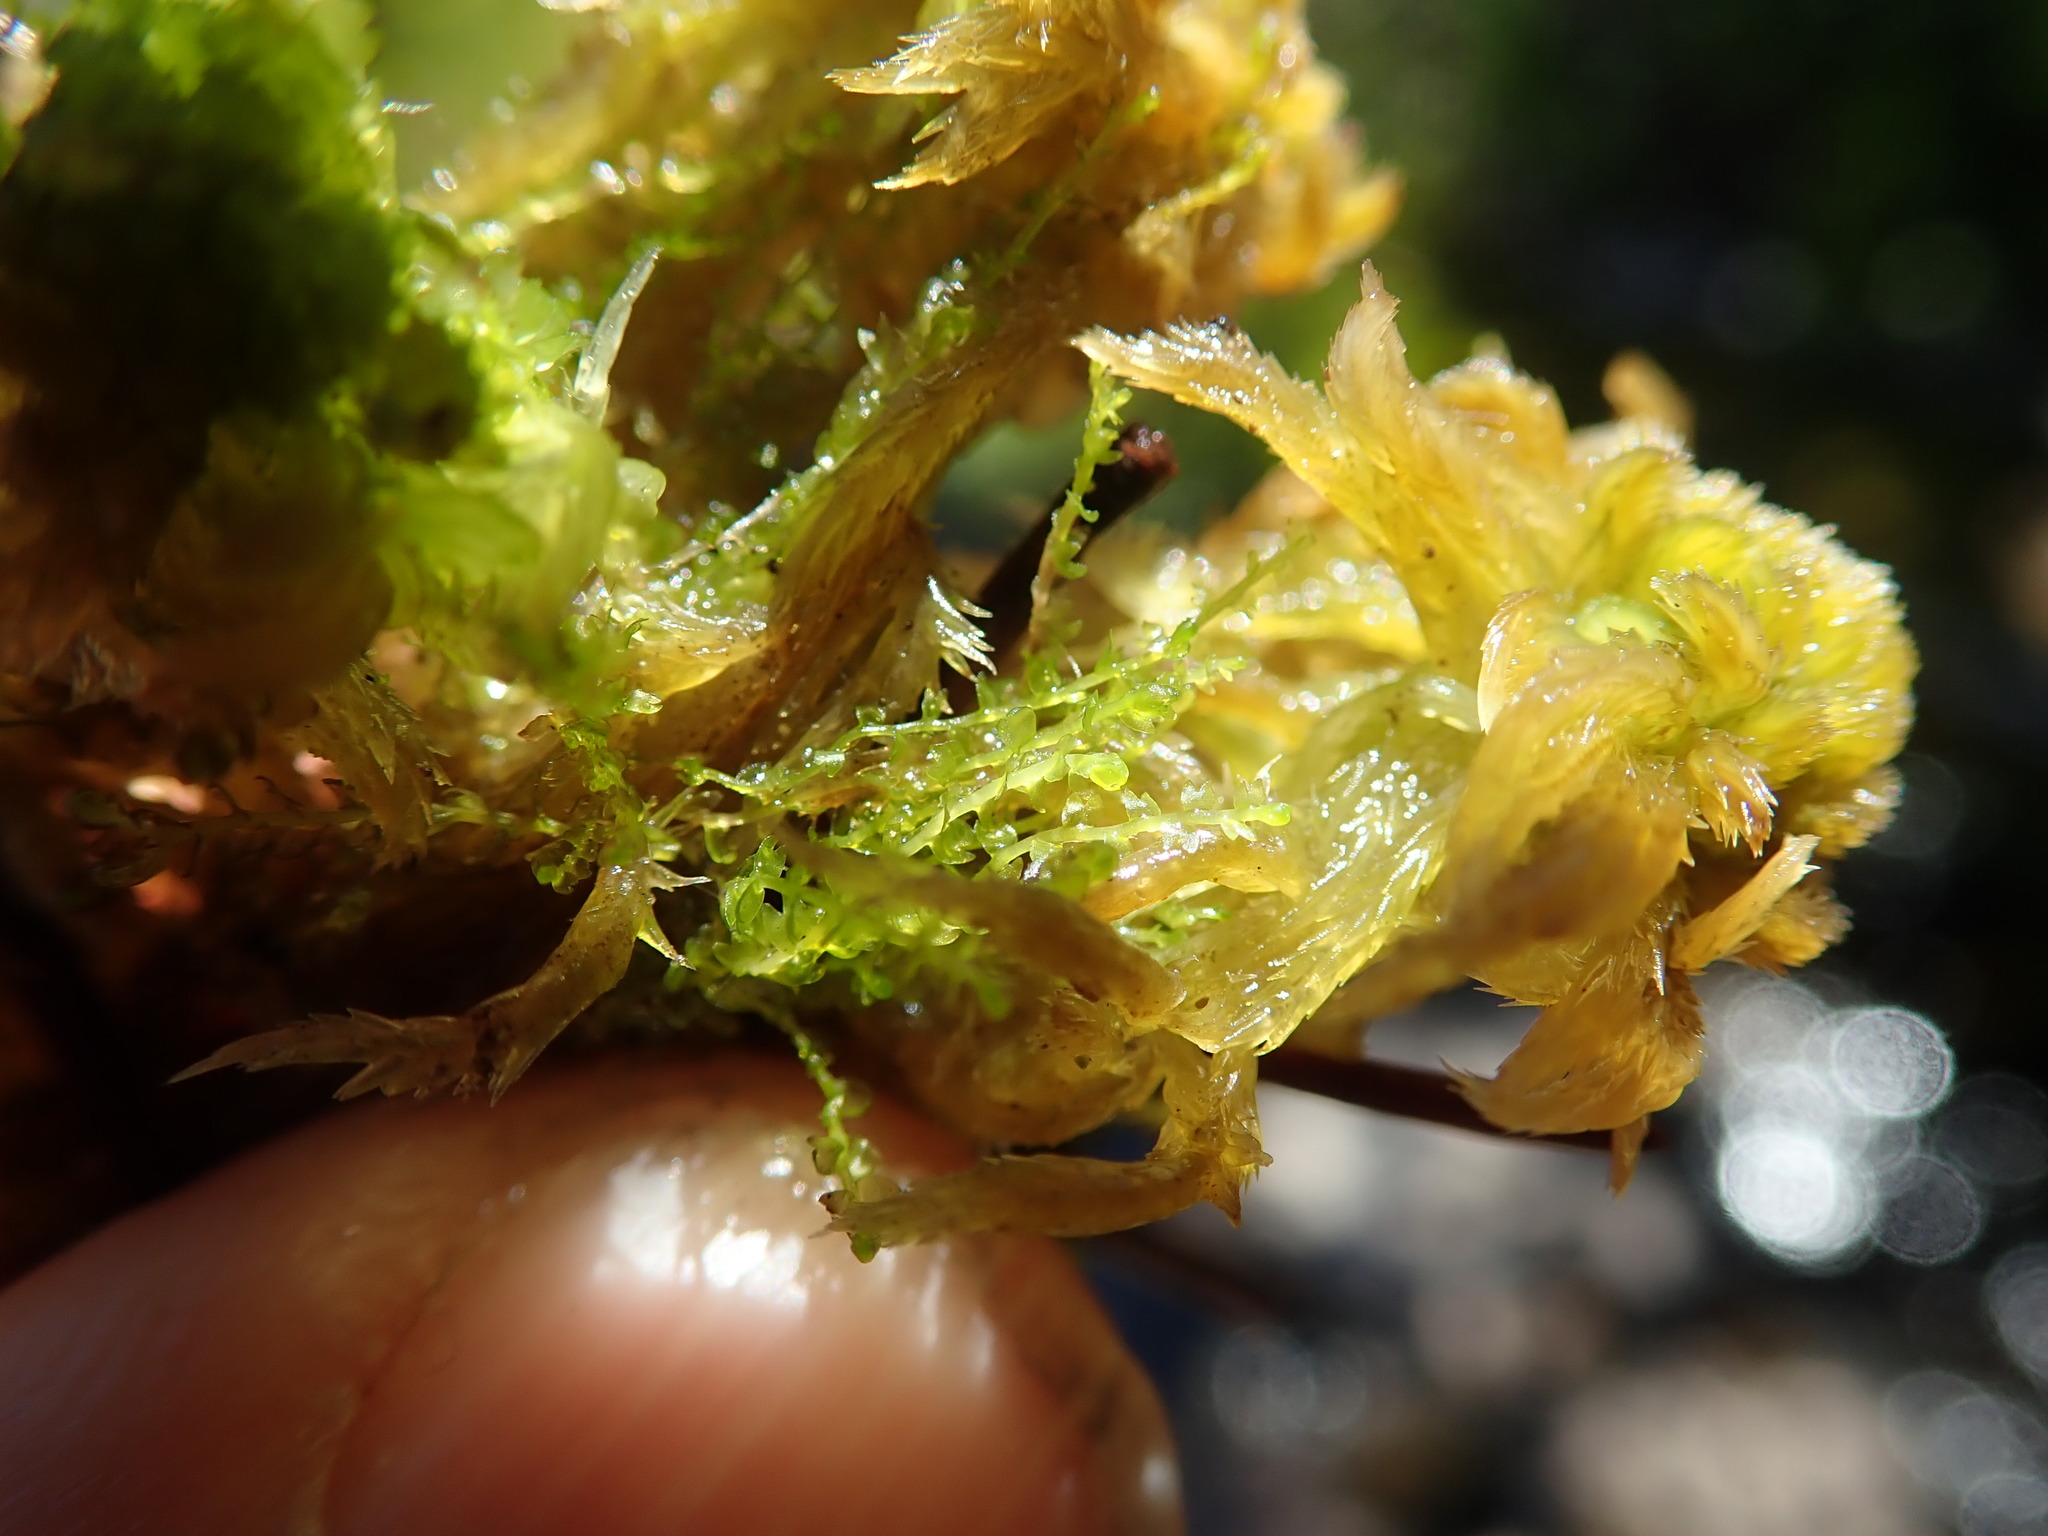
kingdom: Plantae
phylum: Marchantiophyta
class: Jungermanniopsida
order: Jungermanniales
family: Anastrophyllaceae
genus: Gymnocolea
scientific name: Gymnocolea inflata
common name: Inflated notchwort
